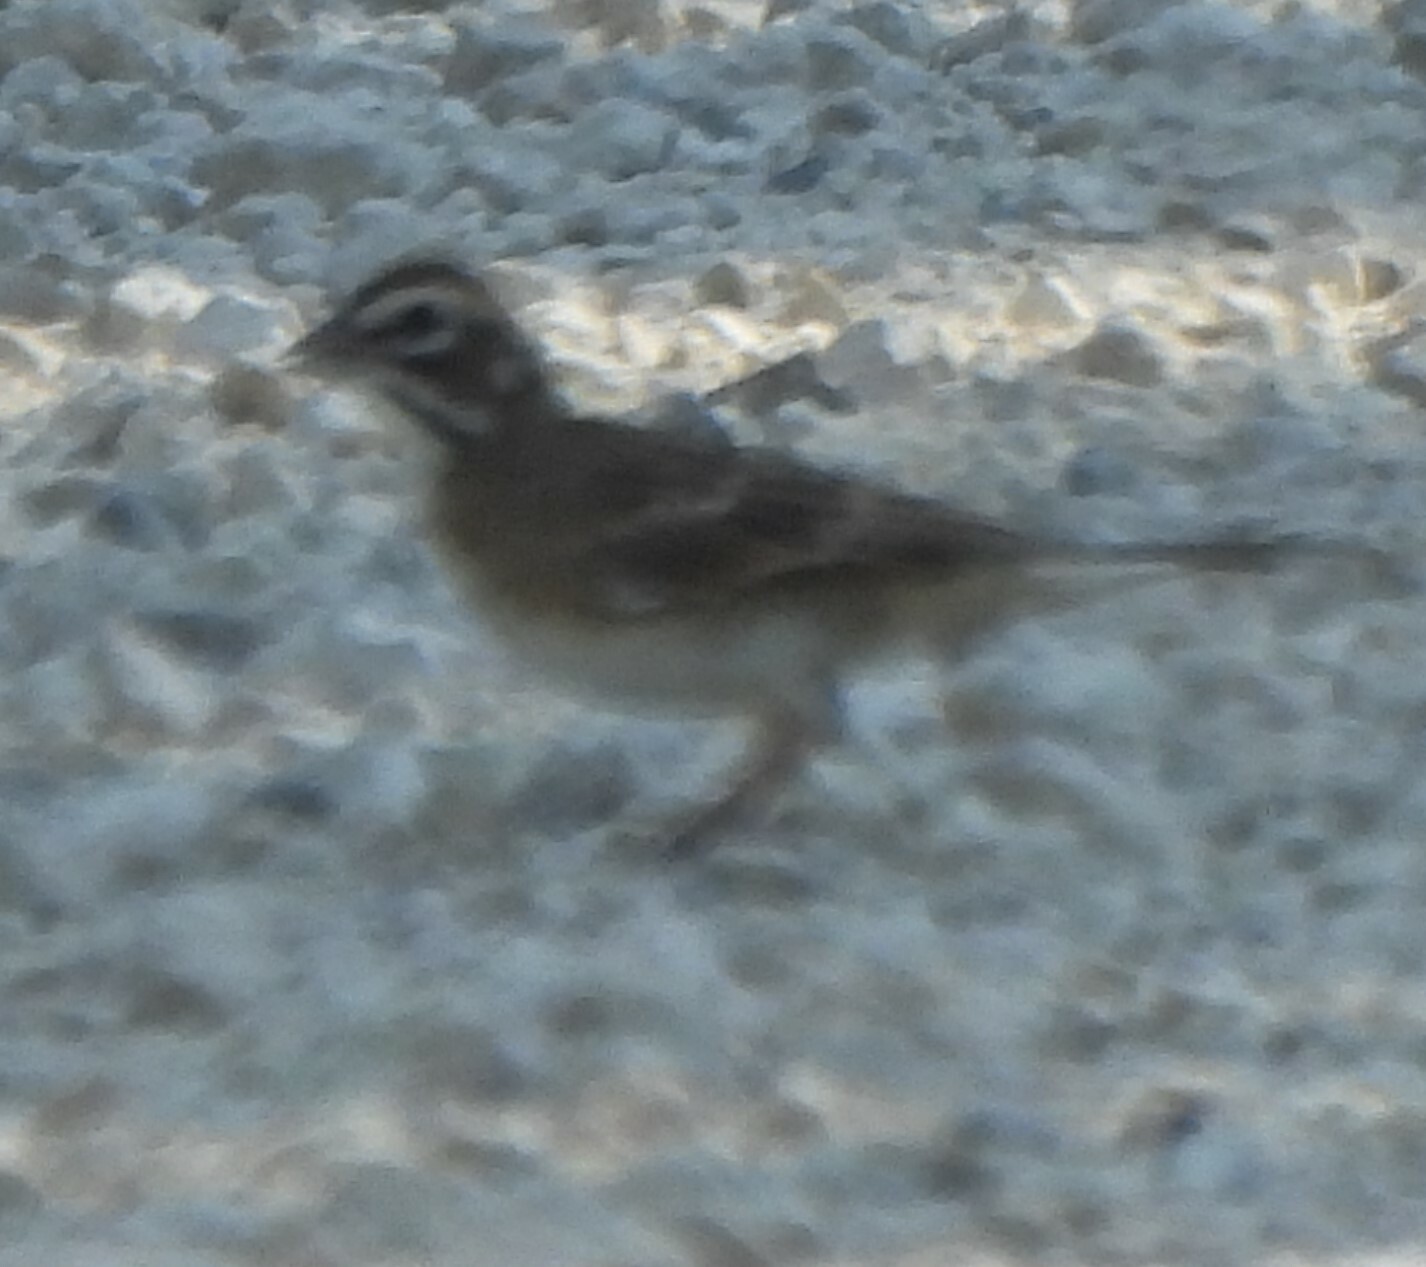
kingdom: Animalia
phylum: Chordata
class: Aves
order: Passeriformes
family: Passerellidae
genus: Chondestes
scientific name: Chondestes grammacus
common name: Lark sparrow
